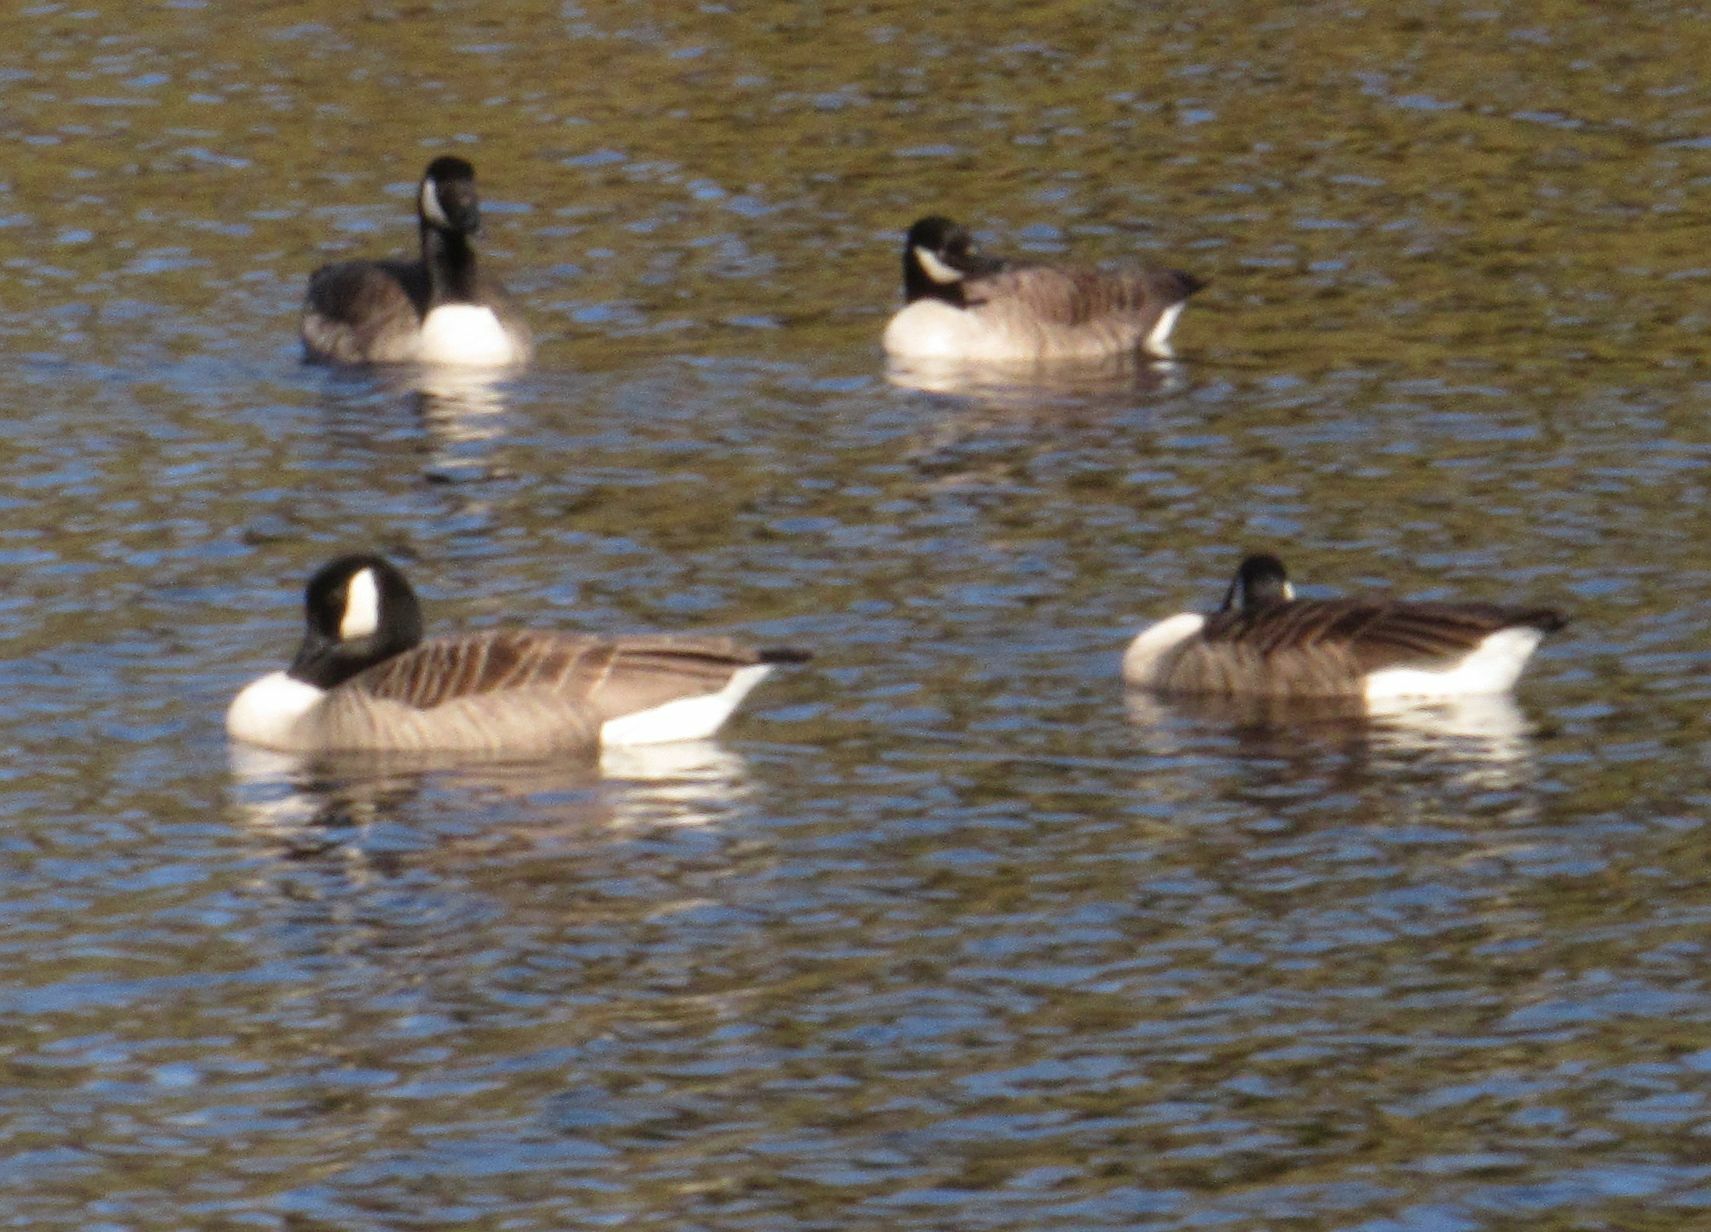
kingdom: Animalia
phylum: Chordata
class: Aves
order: Anseriformes
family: Anatidae
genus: Branta
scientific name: Branta canadensis
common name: Canada goose
